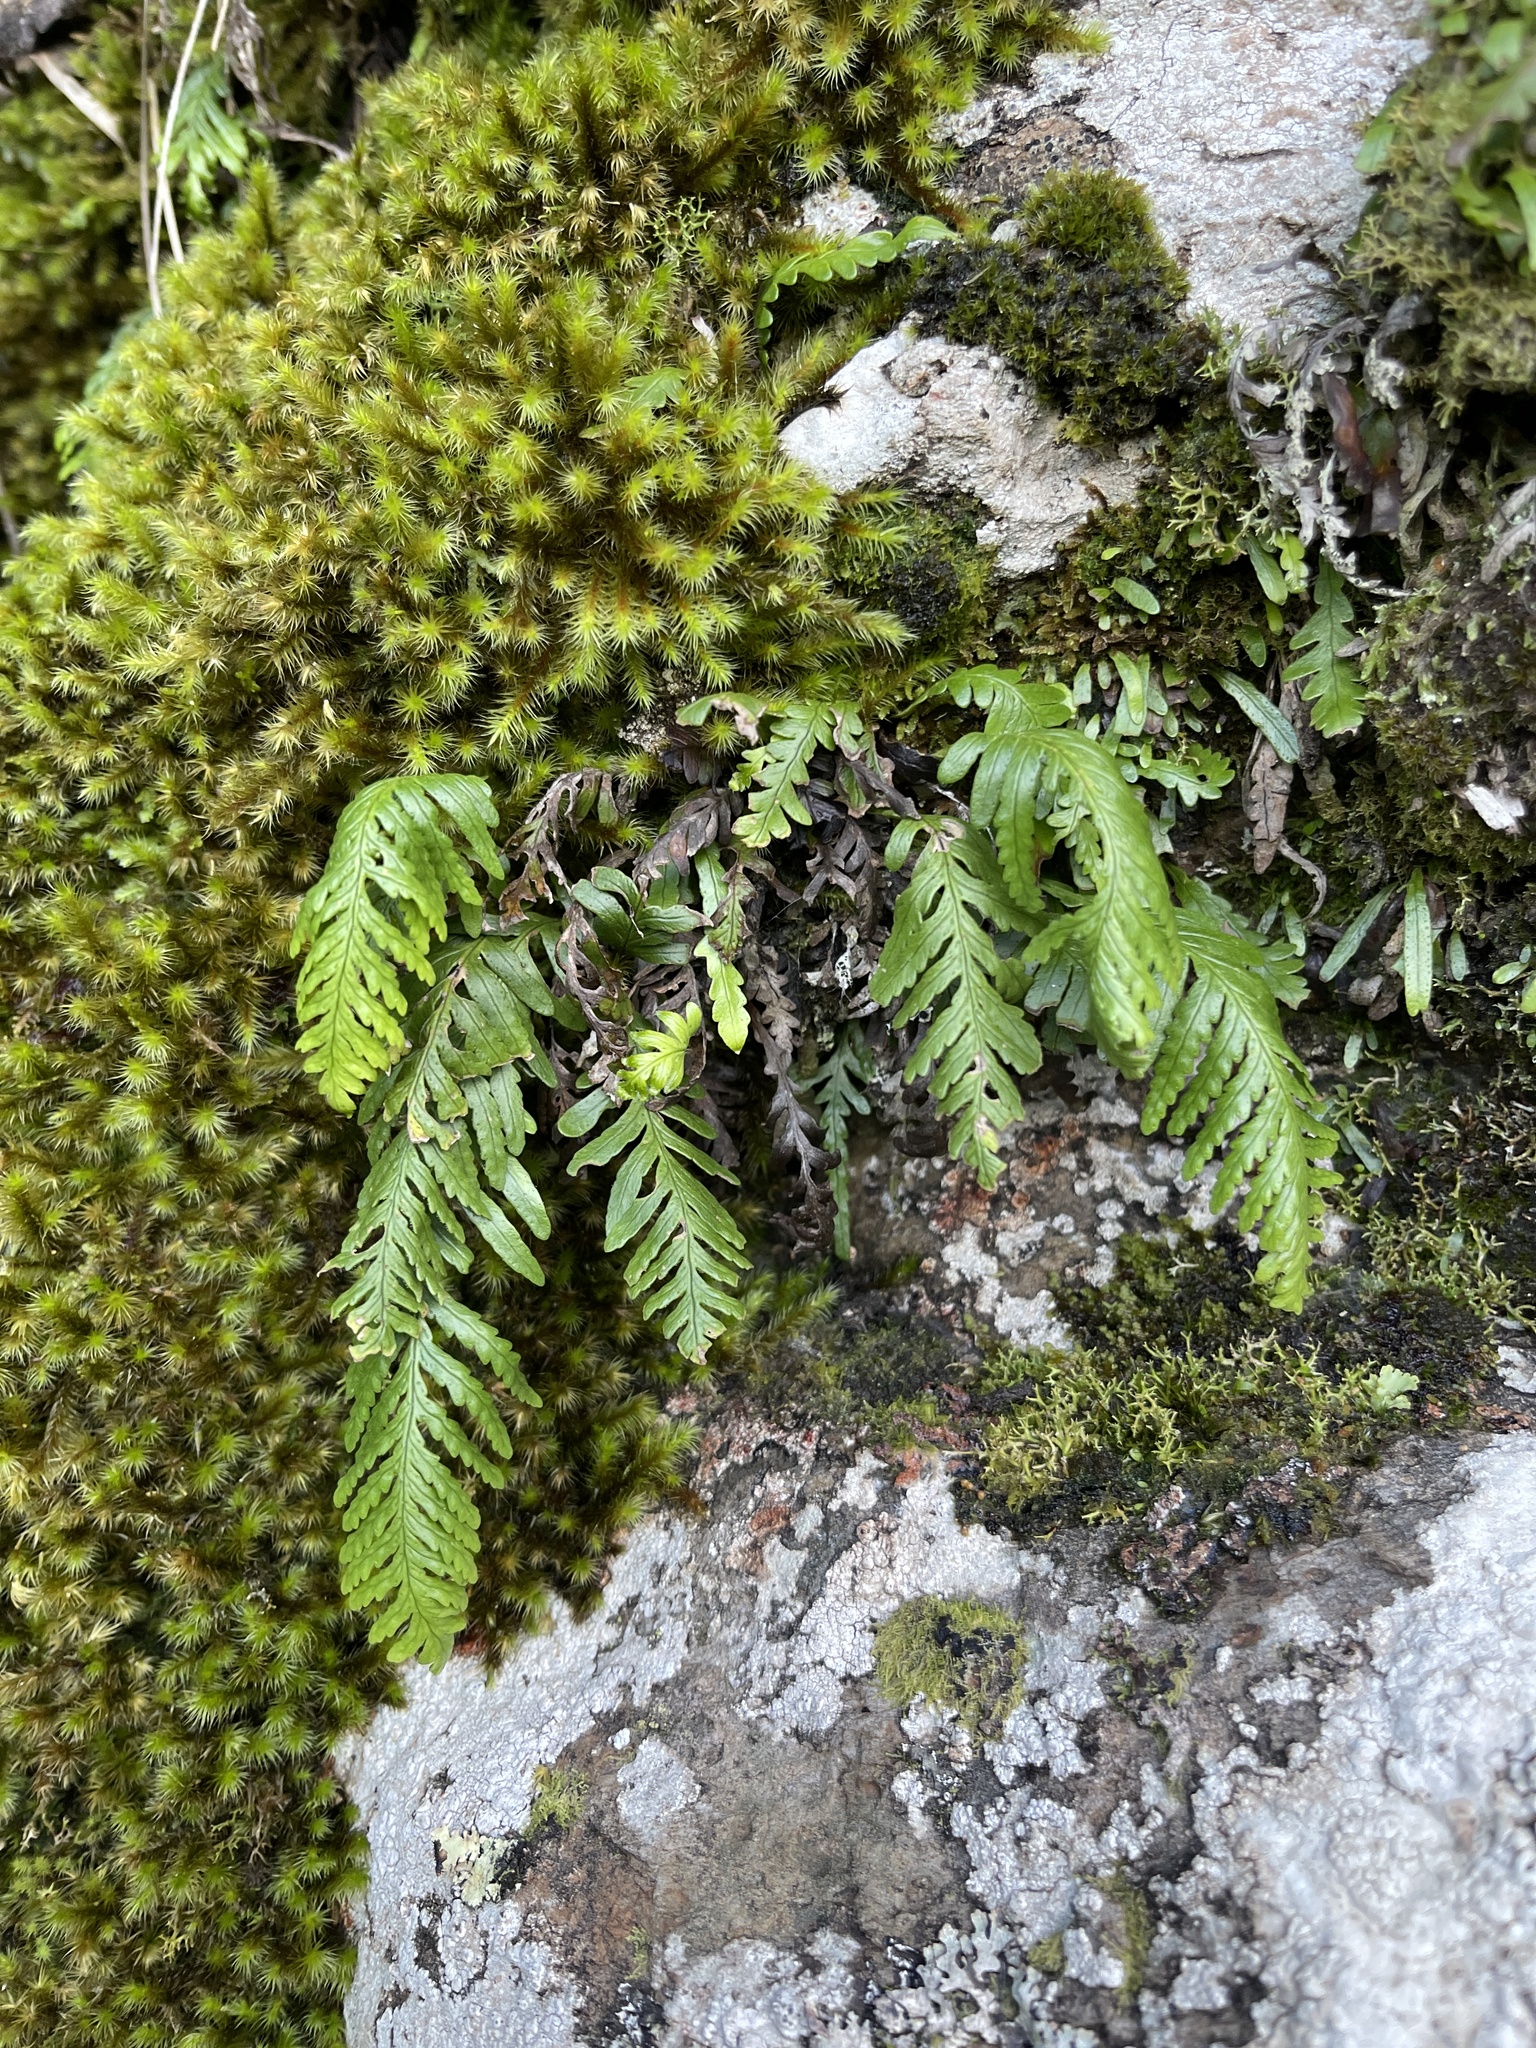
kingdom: Plantae
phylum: Tracheophyta
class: Polypodiopsida
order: Polypodiales
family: Polypodiaceae
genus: Notogrammitis
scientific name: Notogrammitis heterophylla
